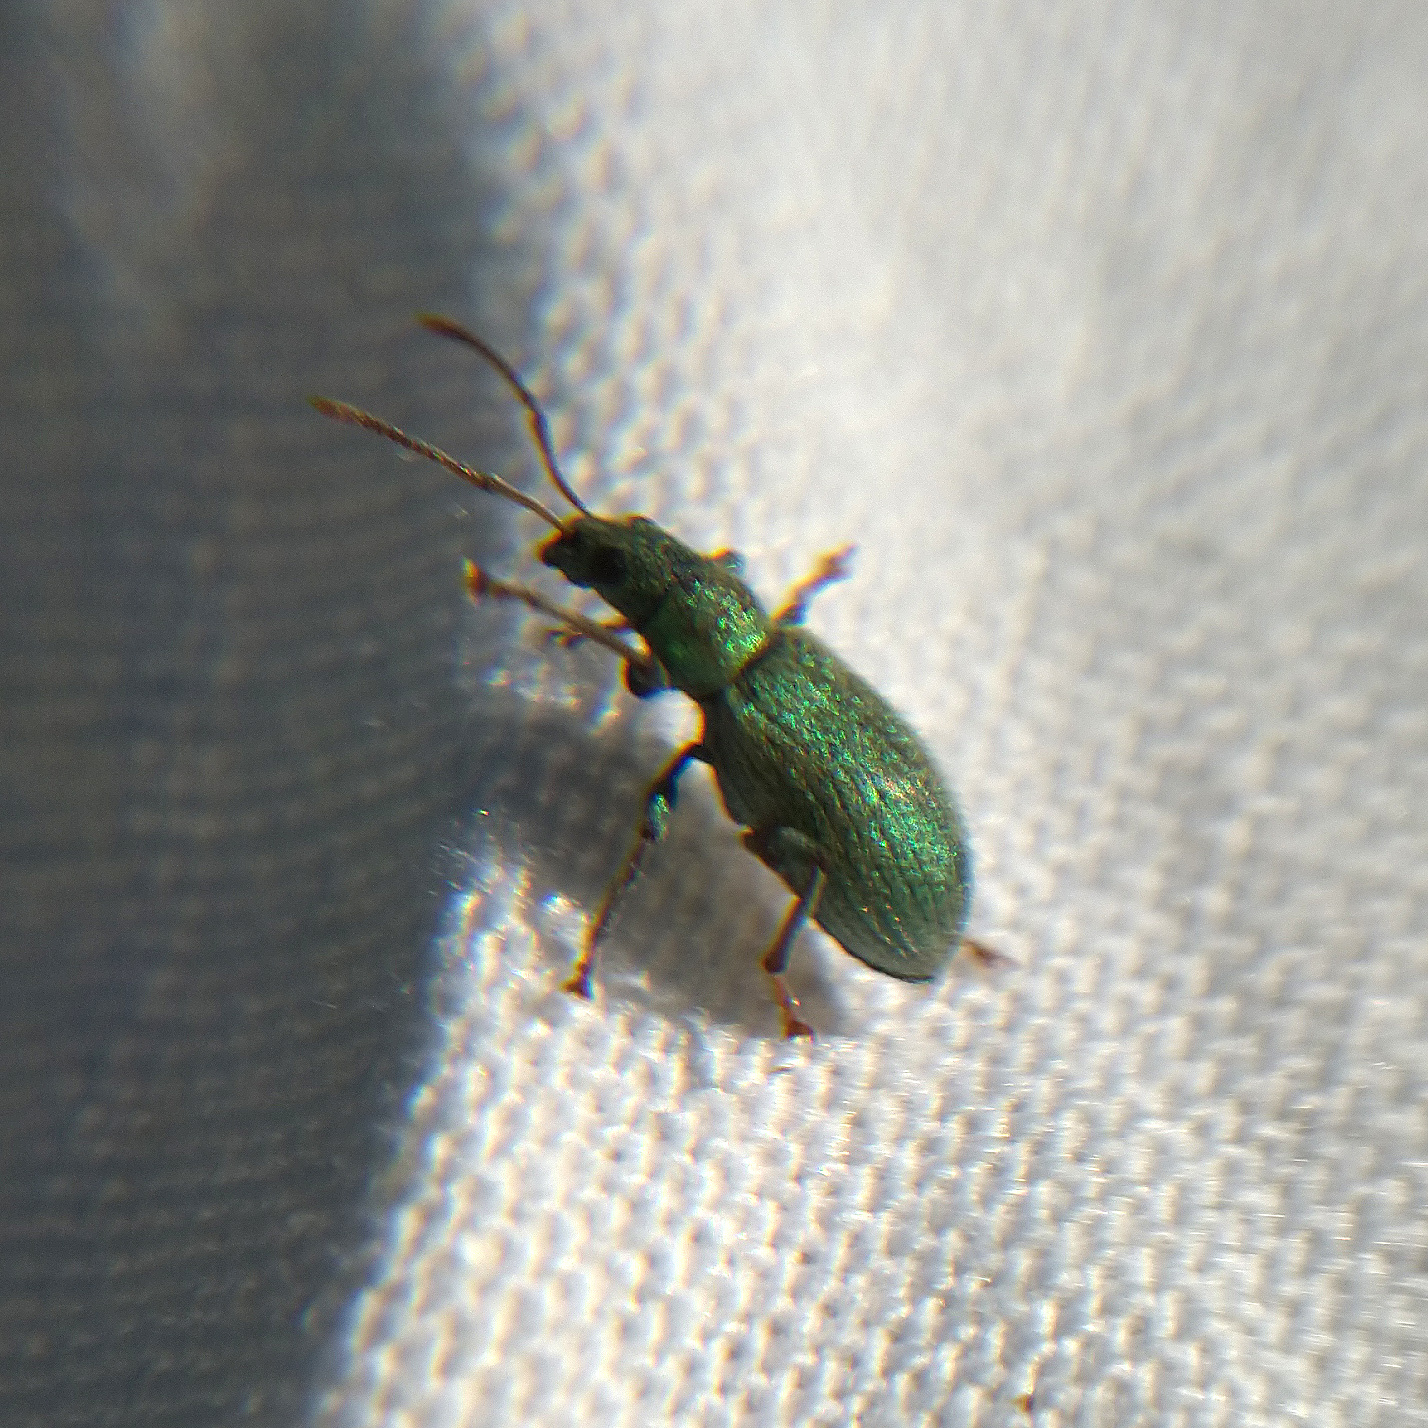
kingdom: Animalia
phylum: Arthropoda
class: Insecta
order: Coleoptera
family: Curculionidae
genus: Phyllobius
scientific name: Phyllobius argentatus
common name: Silver-green leaf weevil
